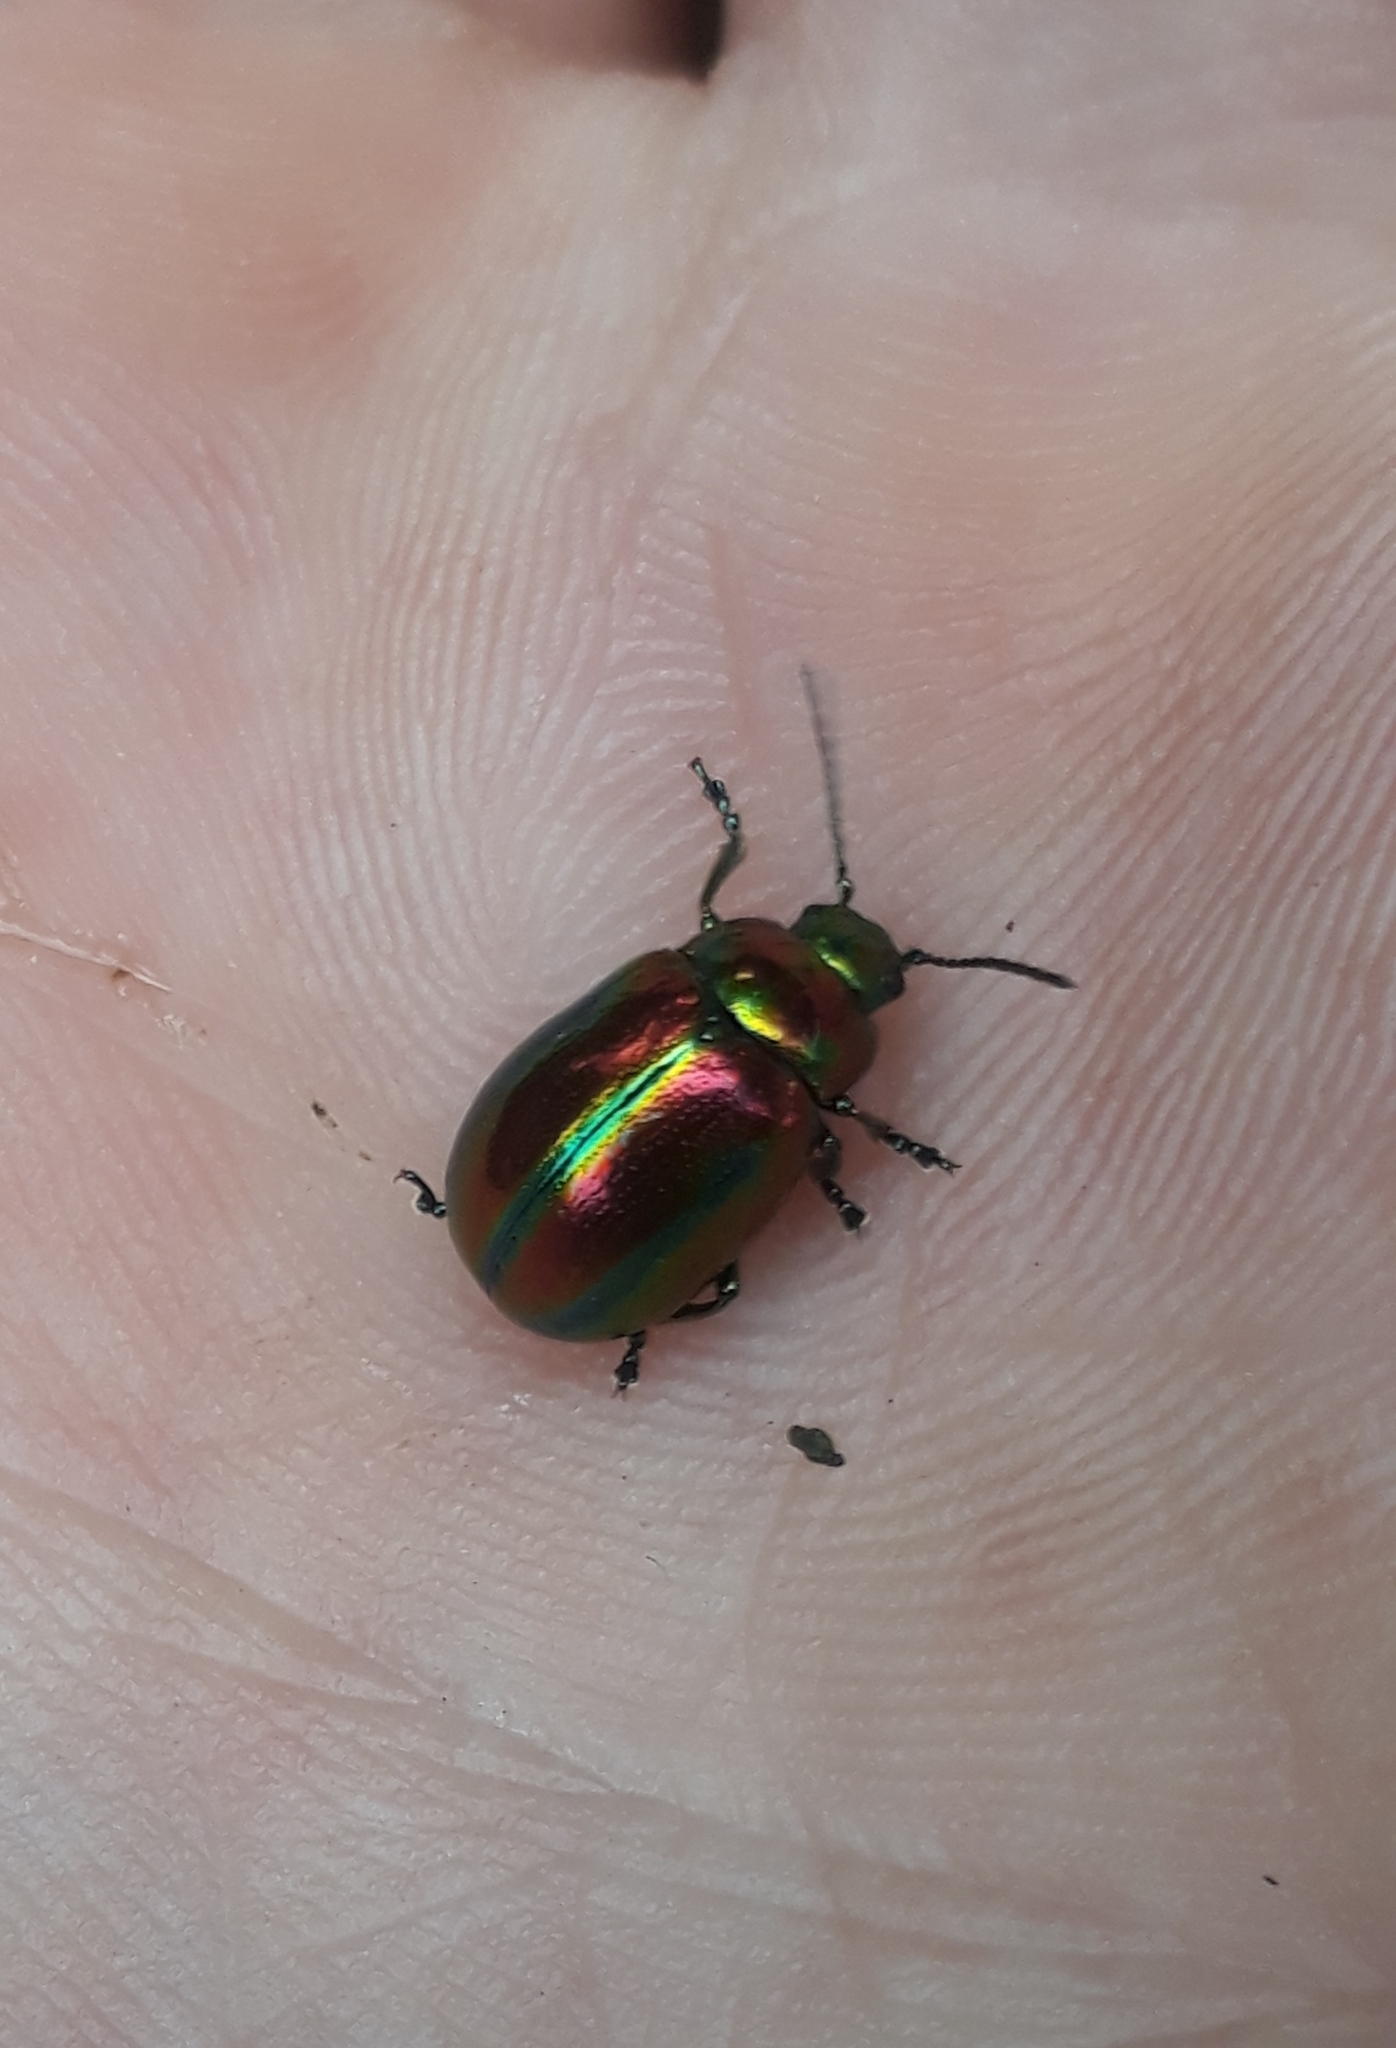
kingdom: Animalia
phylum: Arthropoda
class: Insecta
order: Coleoptera
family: Chrysomelidae
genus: Chrysolina
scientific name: Chrysolina coerulans
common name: Blue mint beetle
